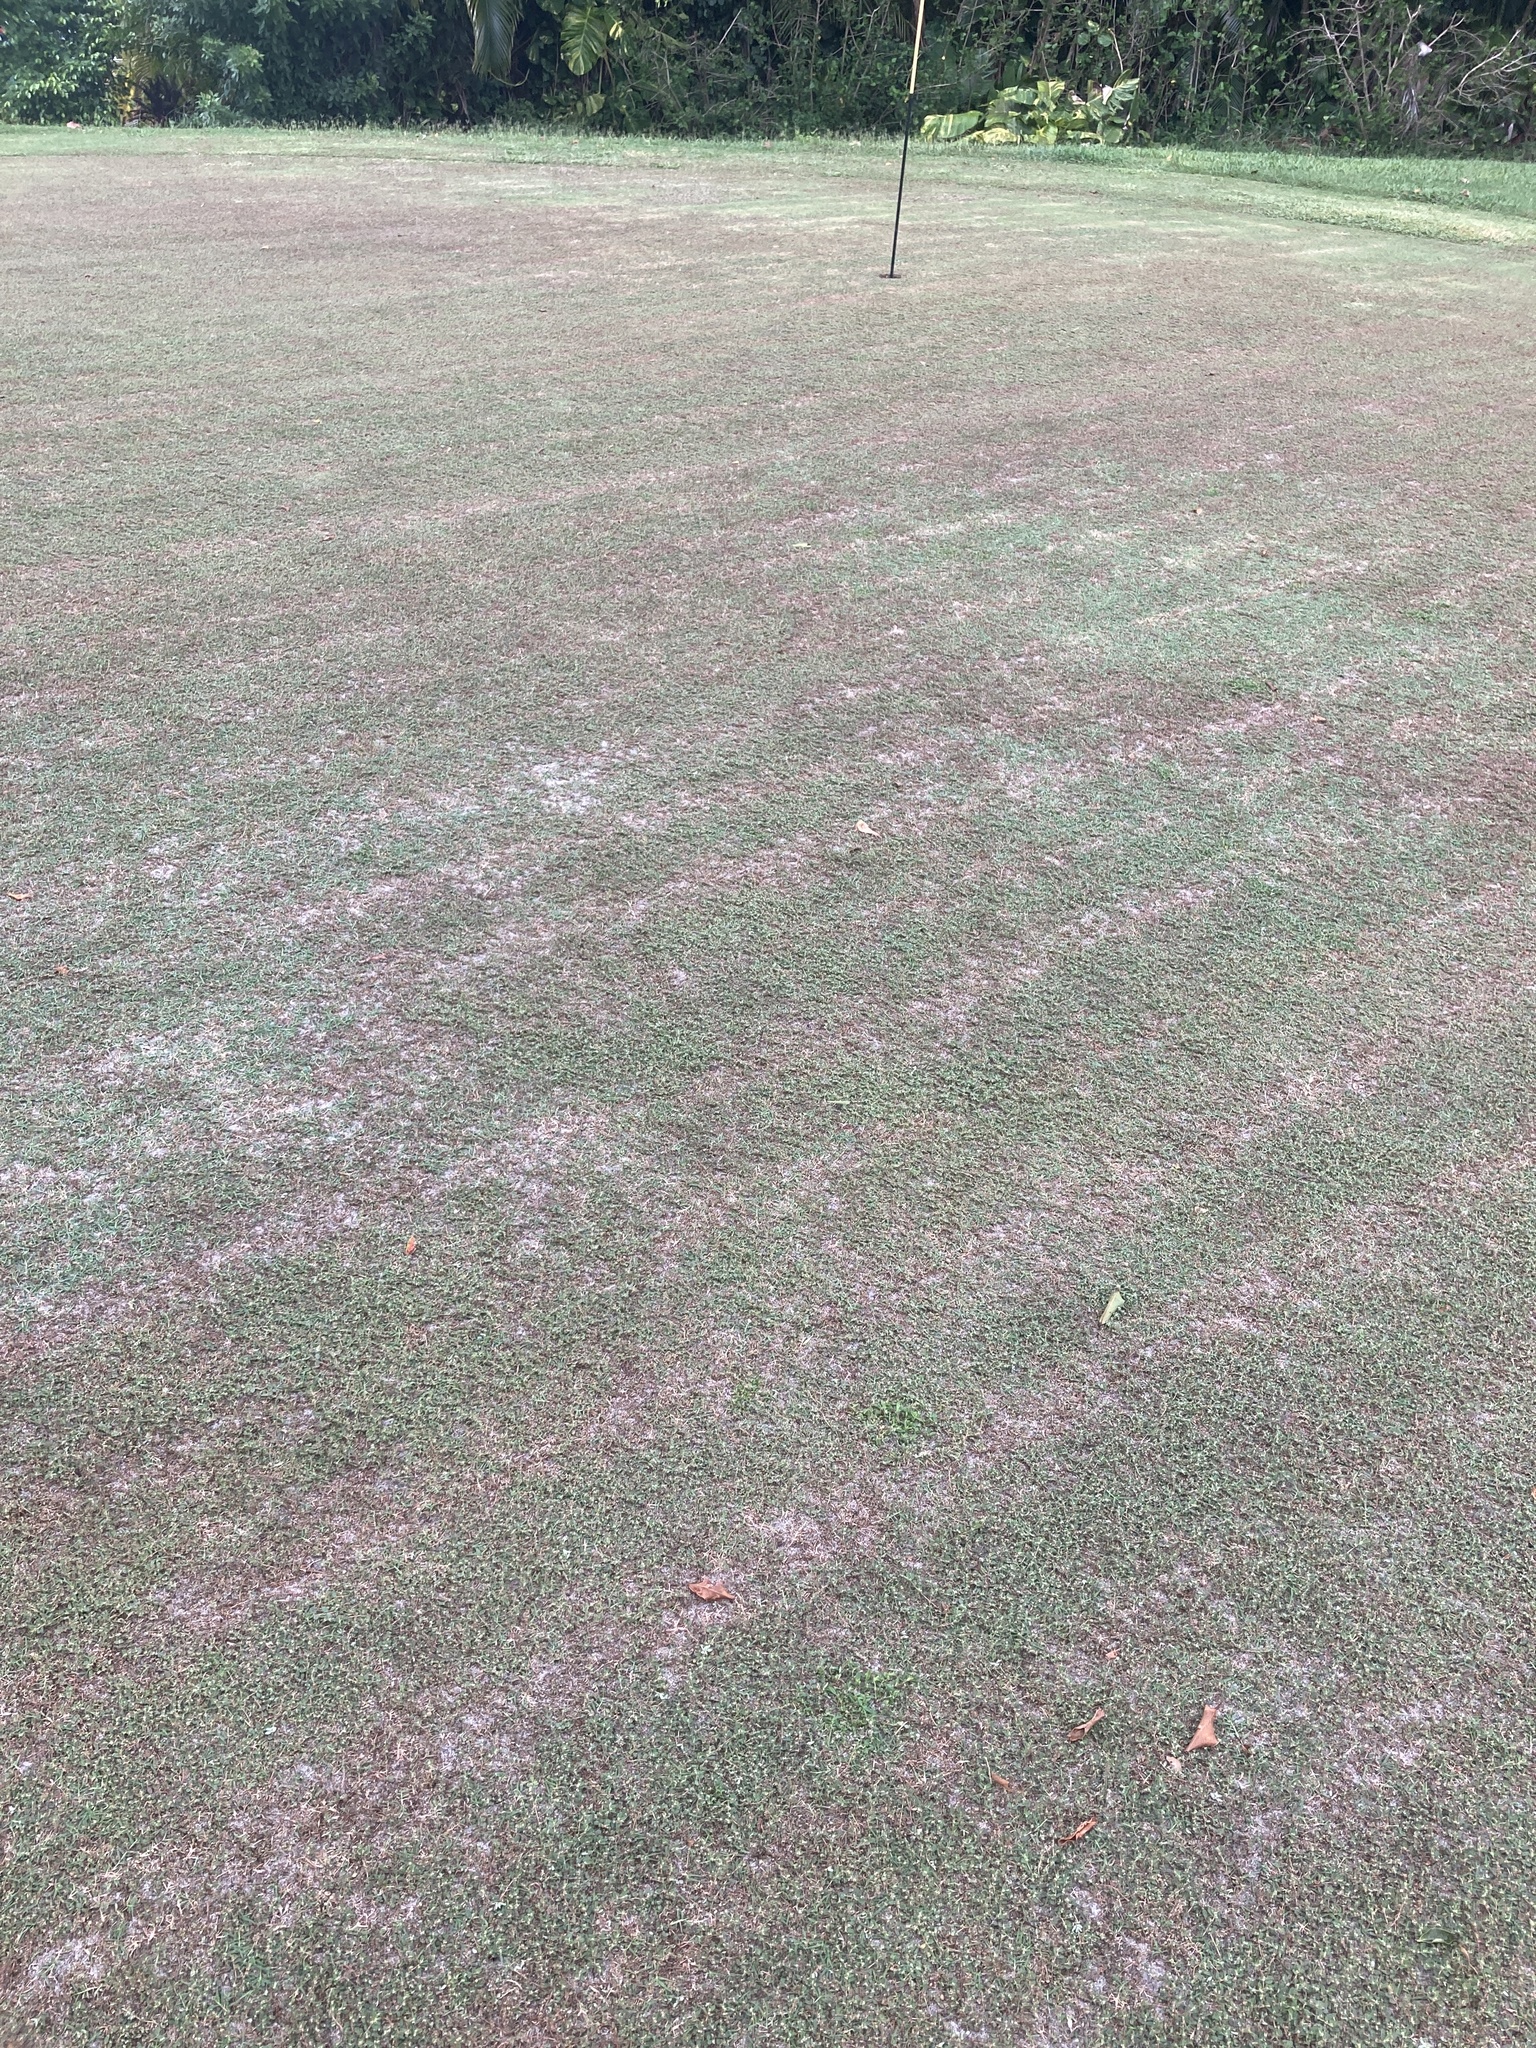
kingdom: Plantae
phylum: Tracheophyta
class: Magnoliopsida
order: Malpighiales
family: Euphorbiaceae
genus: Euphorbia
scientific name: Euphorbia maculata
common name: Spotted spurge
